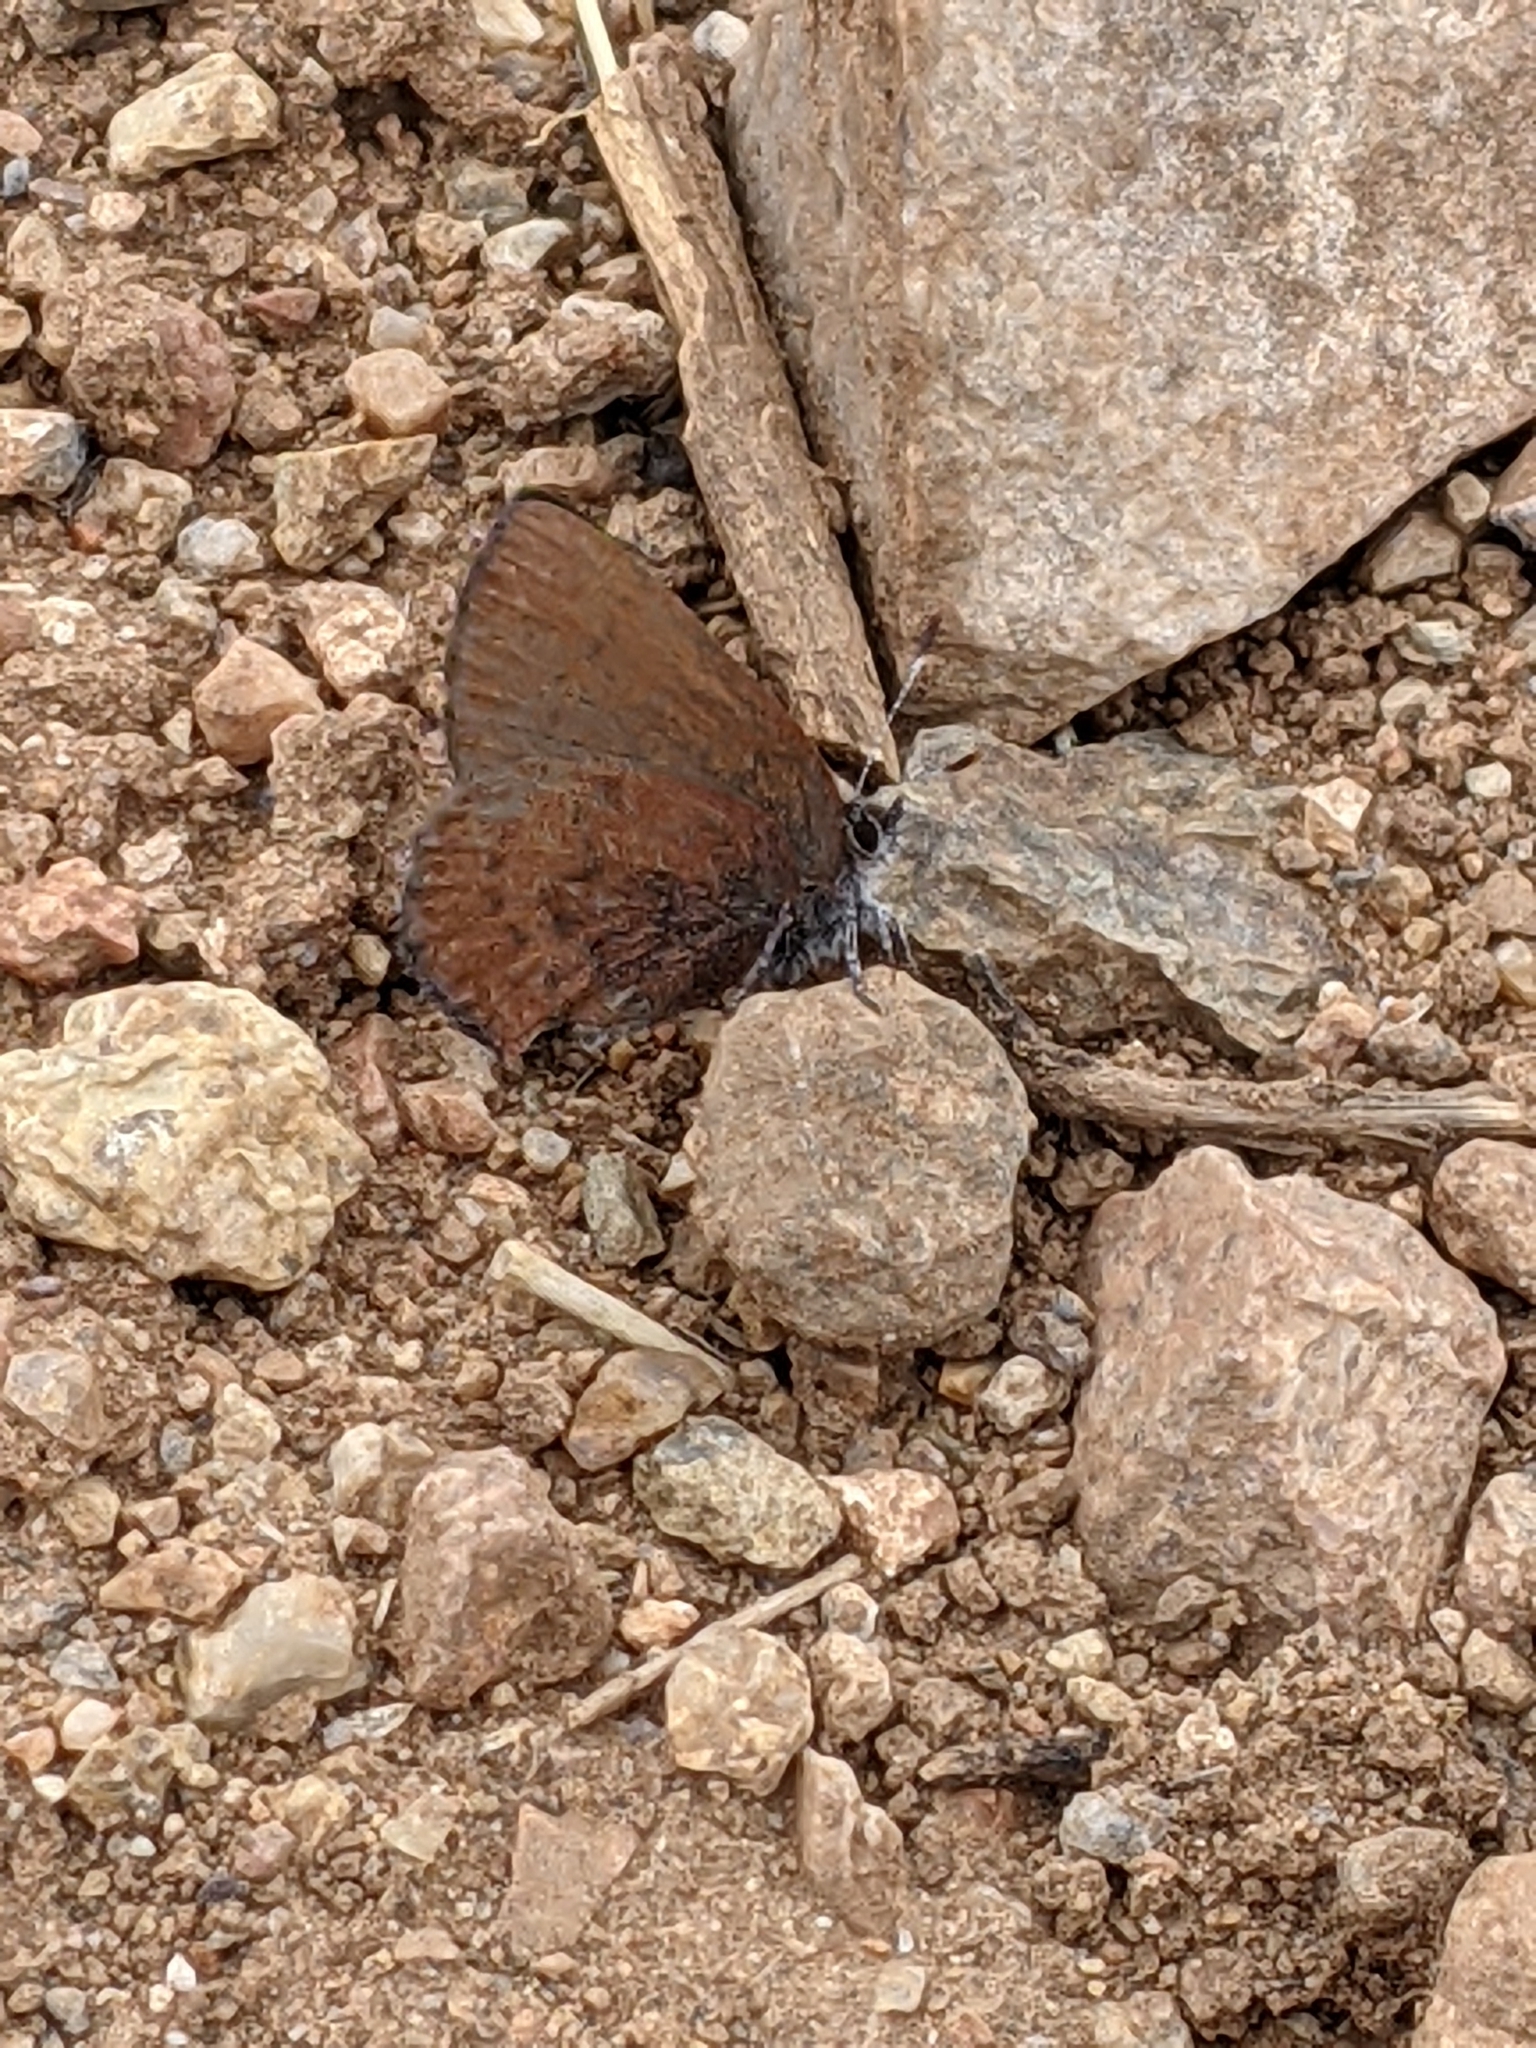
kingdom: Animalia
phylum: Arthropoda
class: Insecta
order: Lepidoptera
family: Lycaenidae
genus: Incisalia
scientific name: Incisalia irioides
